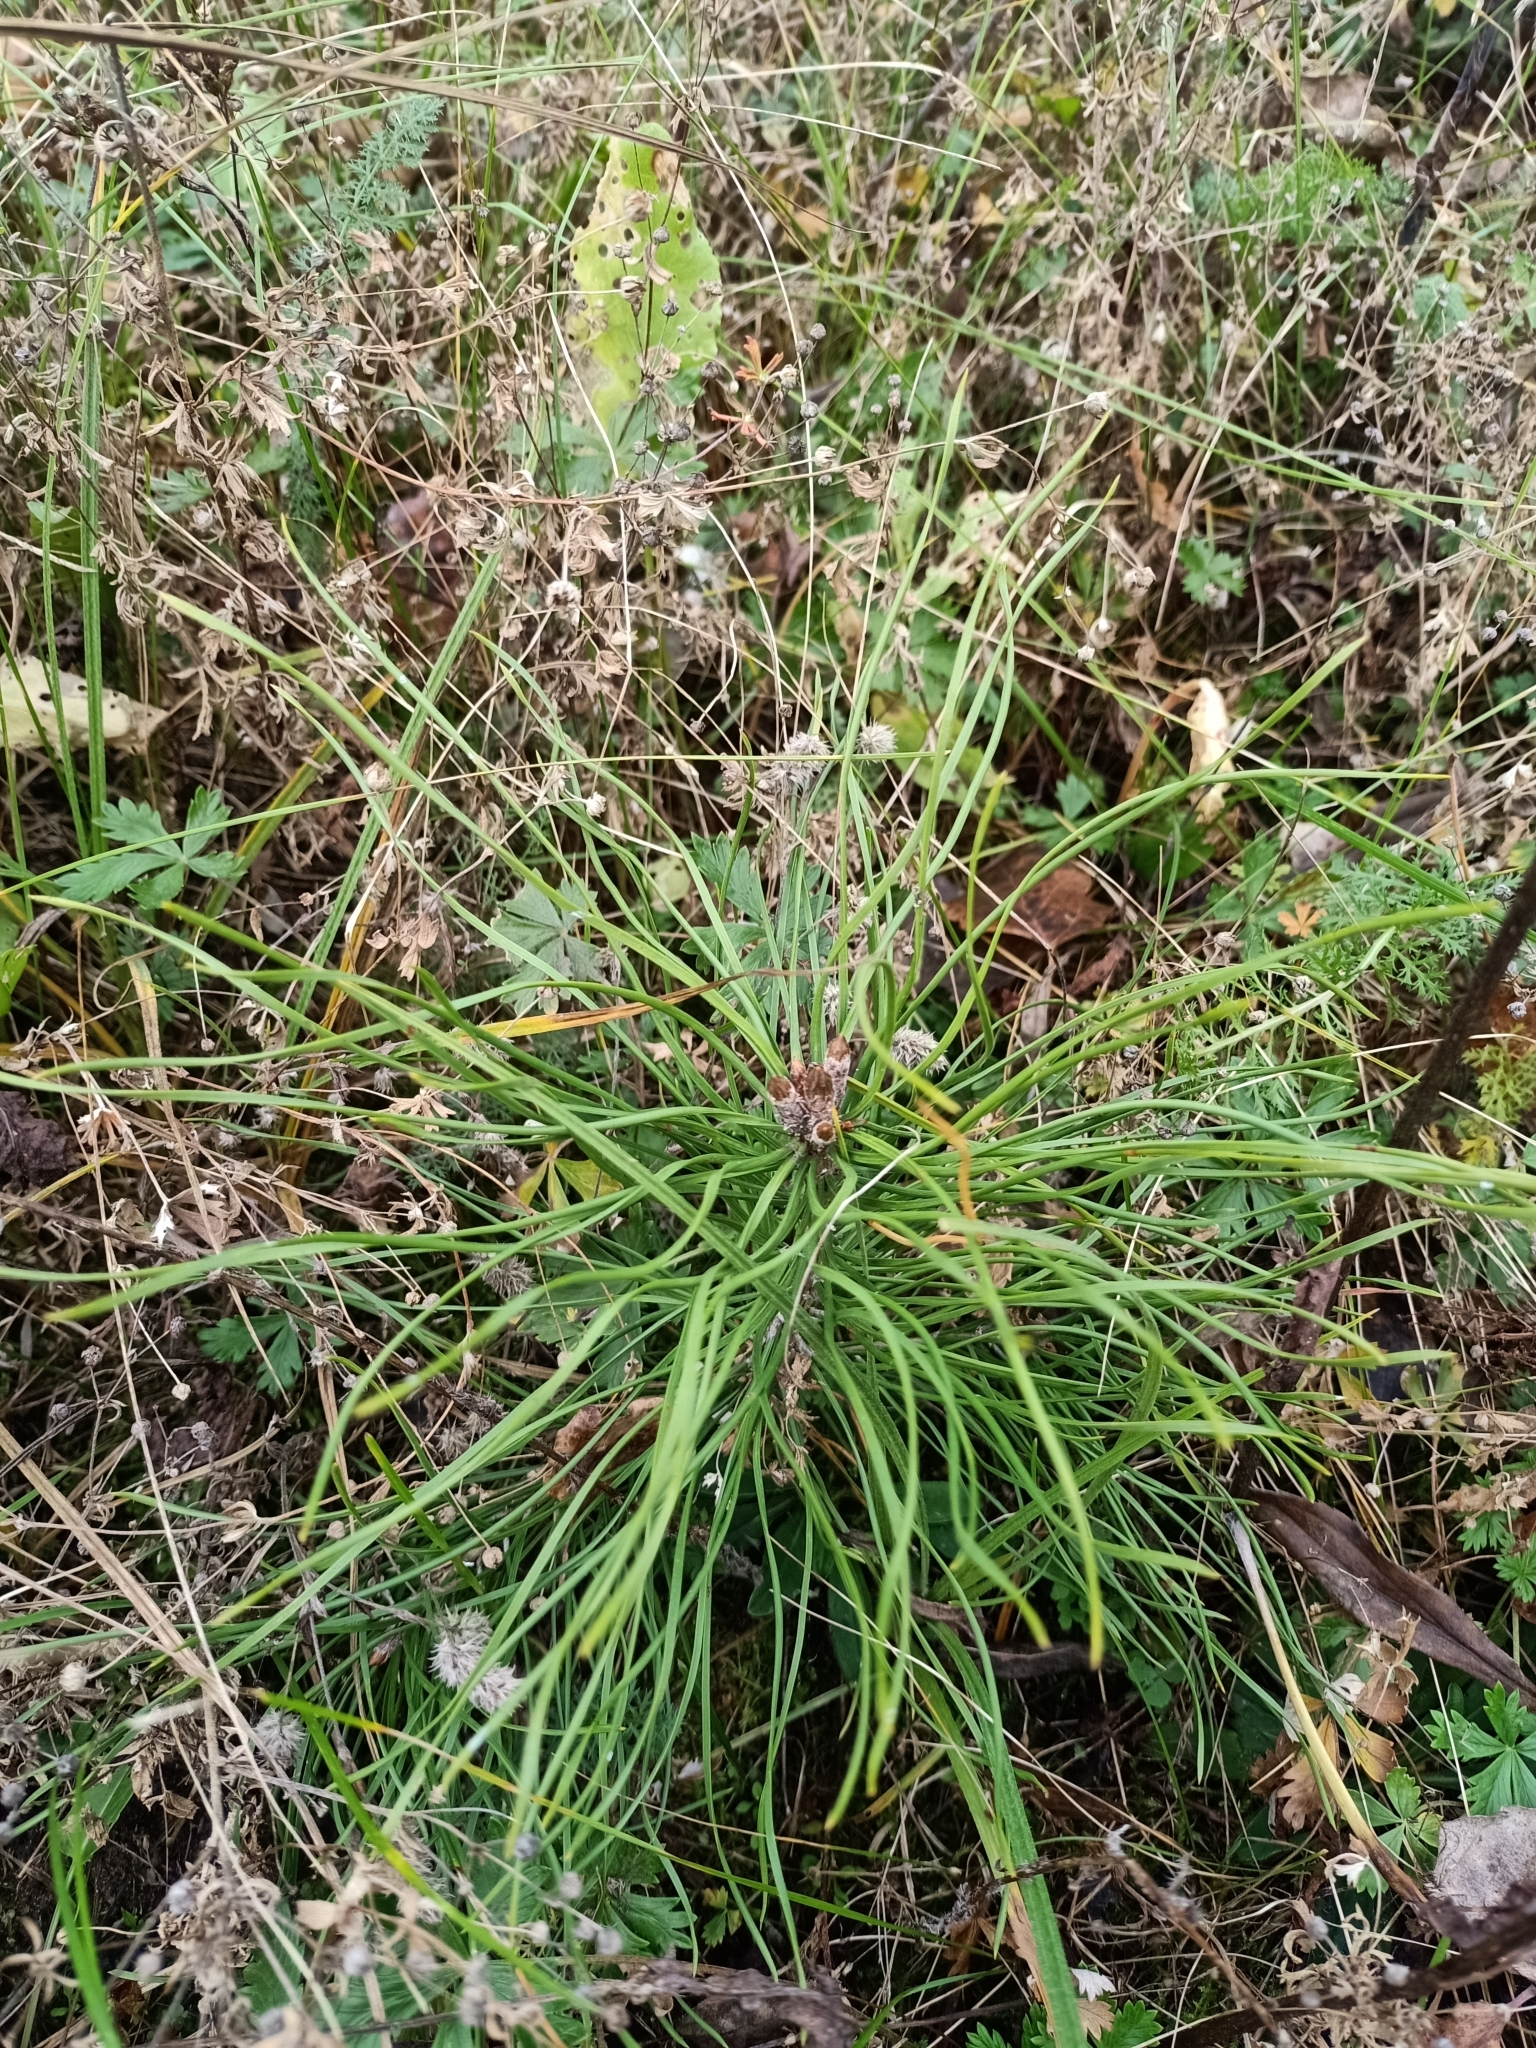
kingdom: Plantae
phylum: Tracheophyta
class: Pinopsida
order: Pinales
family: Pinaceae
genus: Pinus
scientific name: Pinus sylvestris
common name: Scots pine
